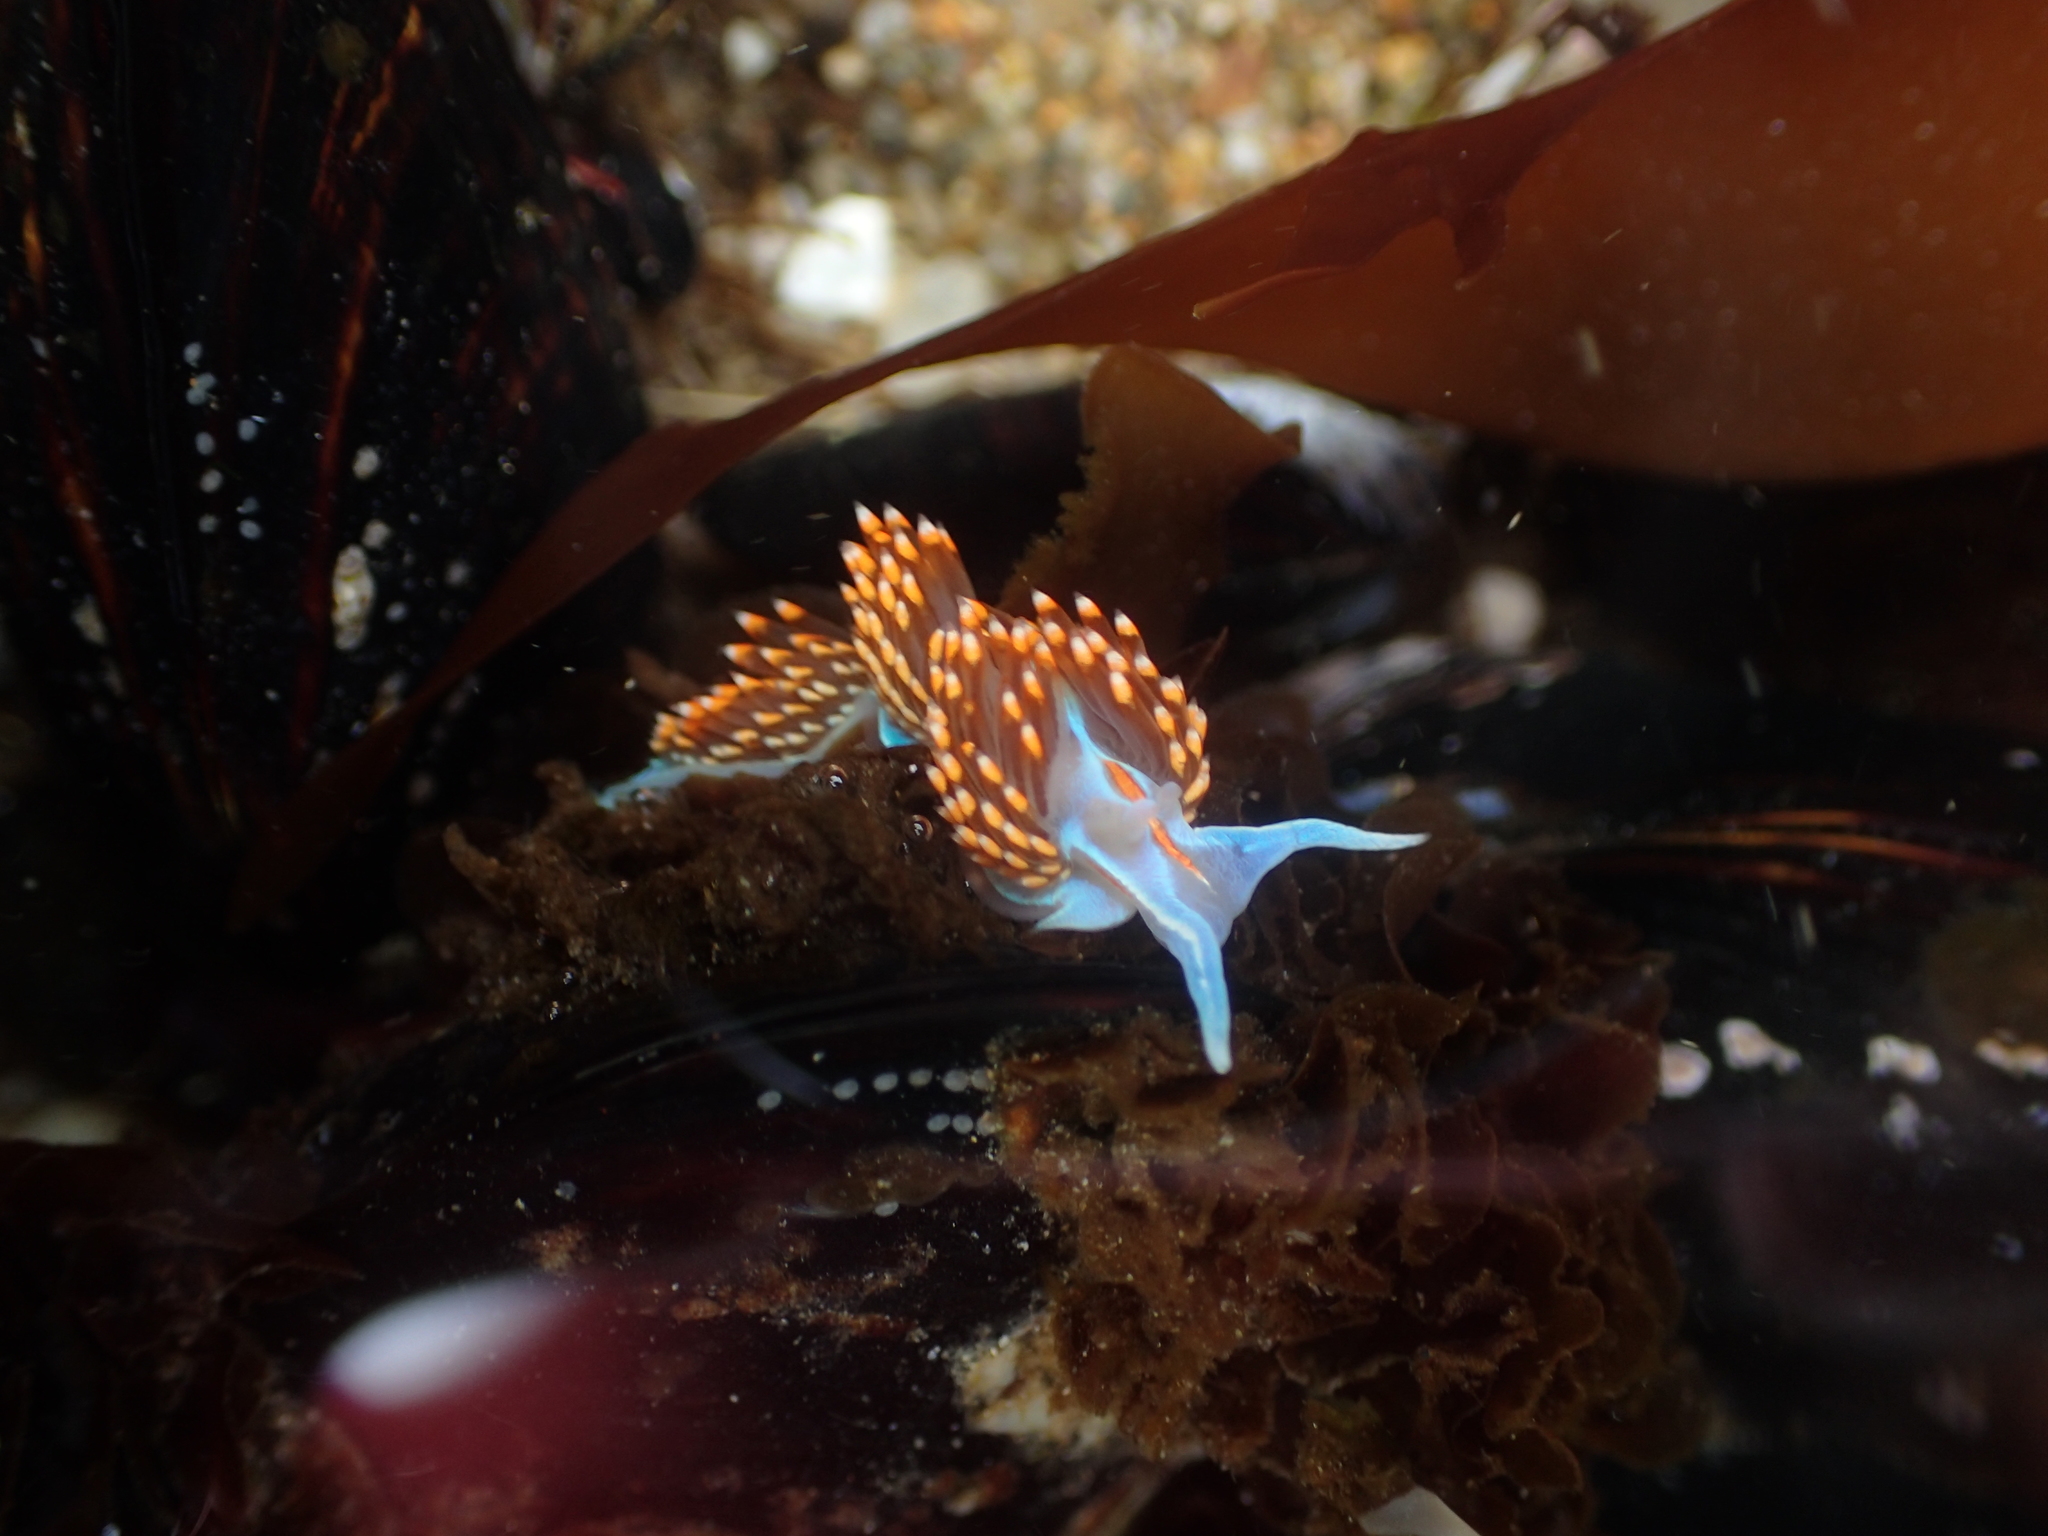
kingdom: Animalia
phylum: Mollusca
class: Gastropoda
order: Nudibranchia
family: Myrrhinidae
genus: Hermissenda
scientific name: Hermissenda opalescens
